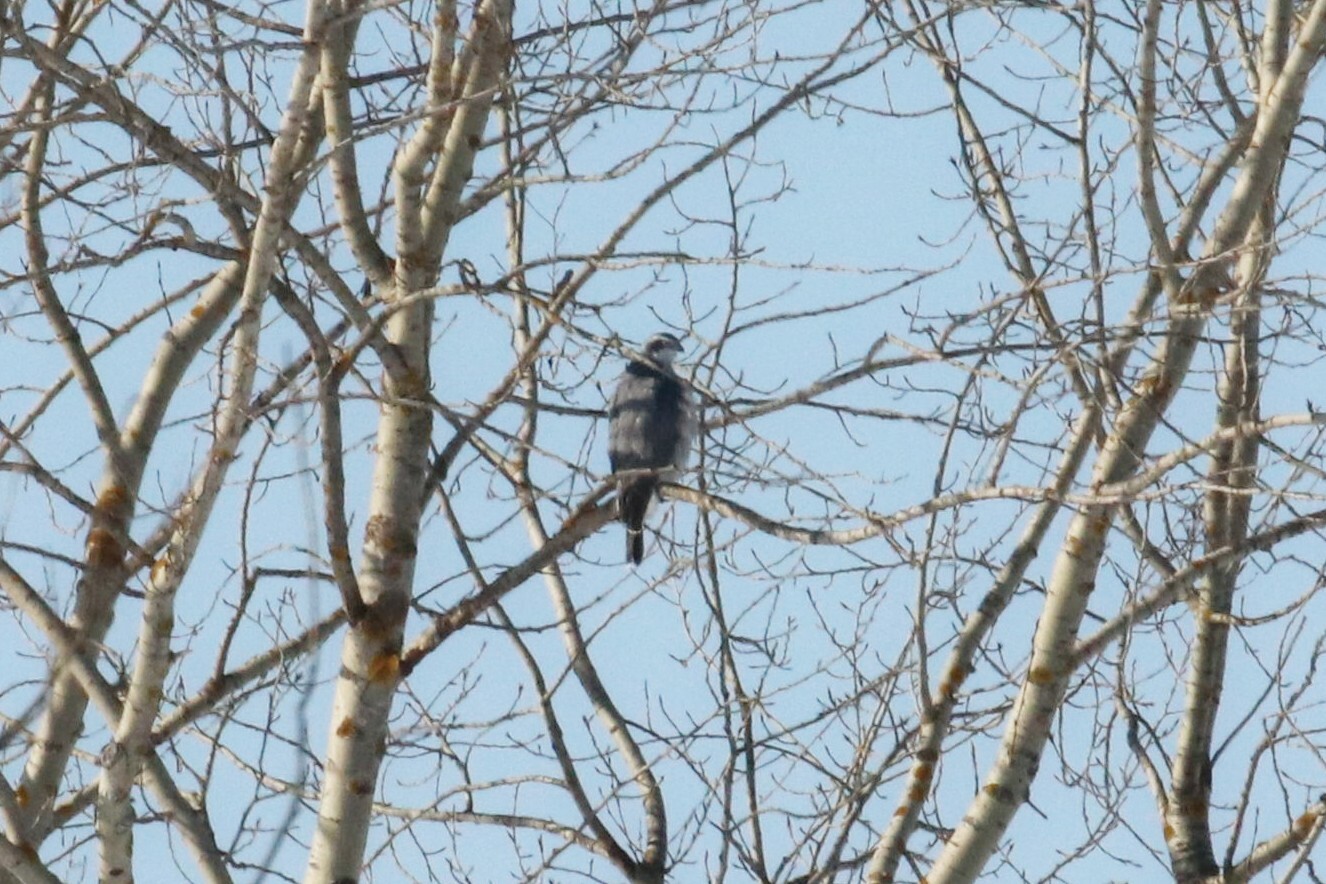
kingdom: Animalia
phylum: Chordata
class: Aves
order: Accipitriformes
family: Accipitridae
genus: Accipiter
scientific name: Accipiter gentilis
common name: Northern goshawk
